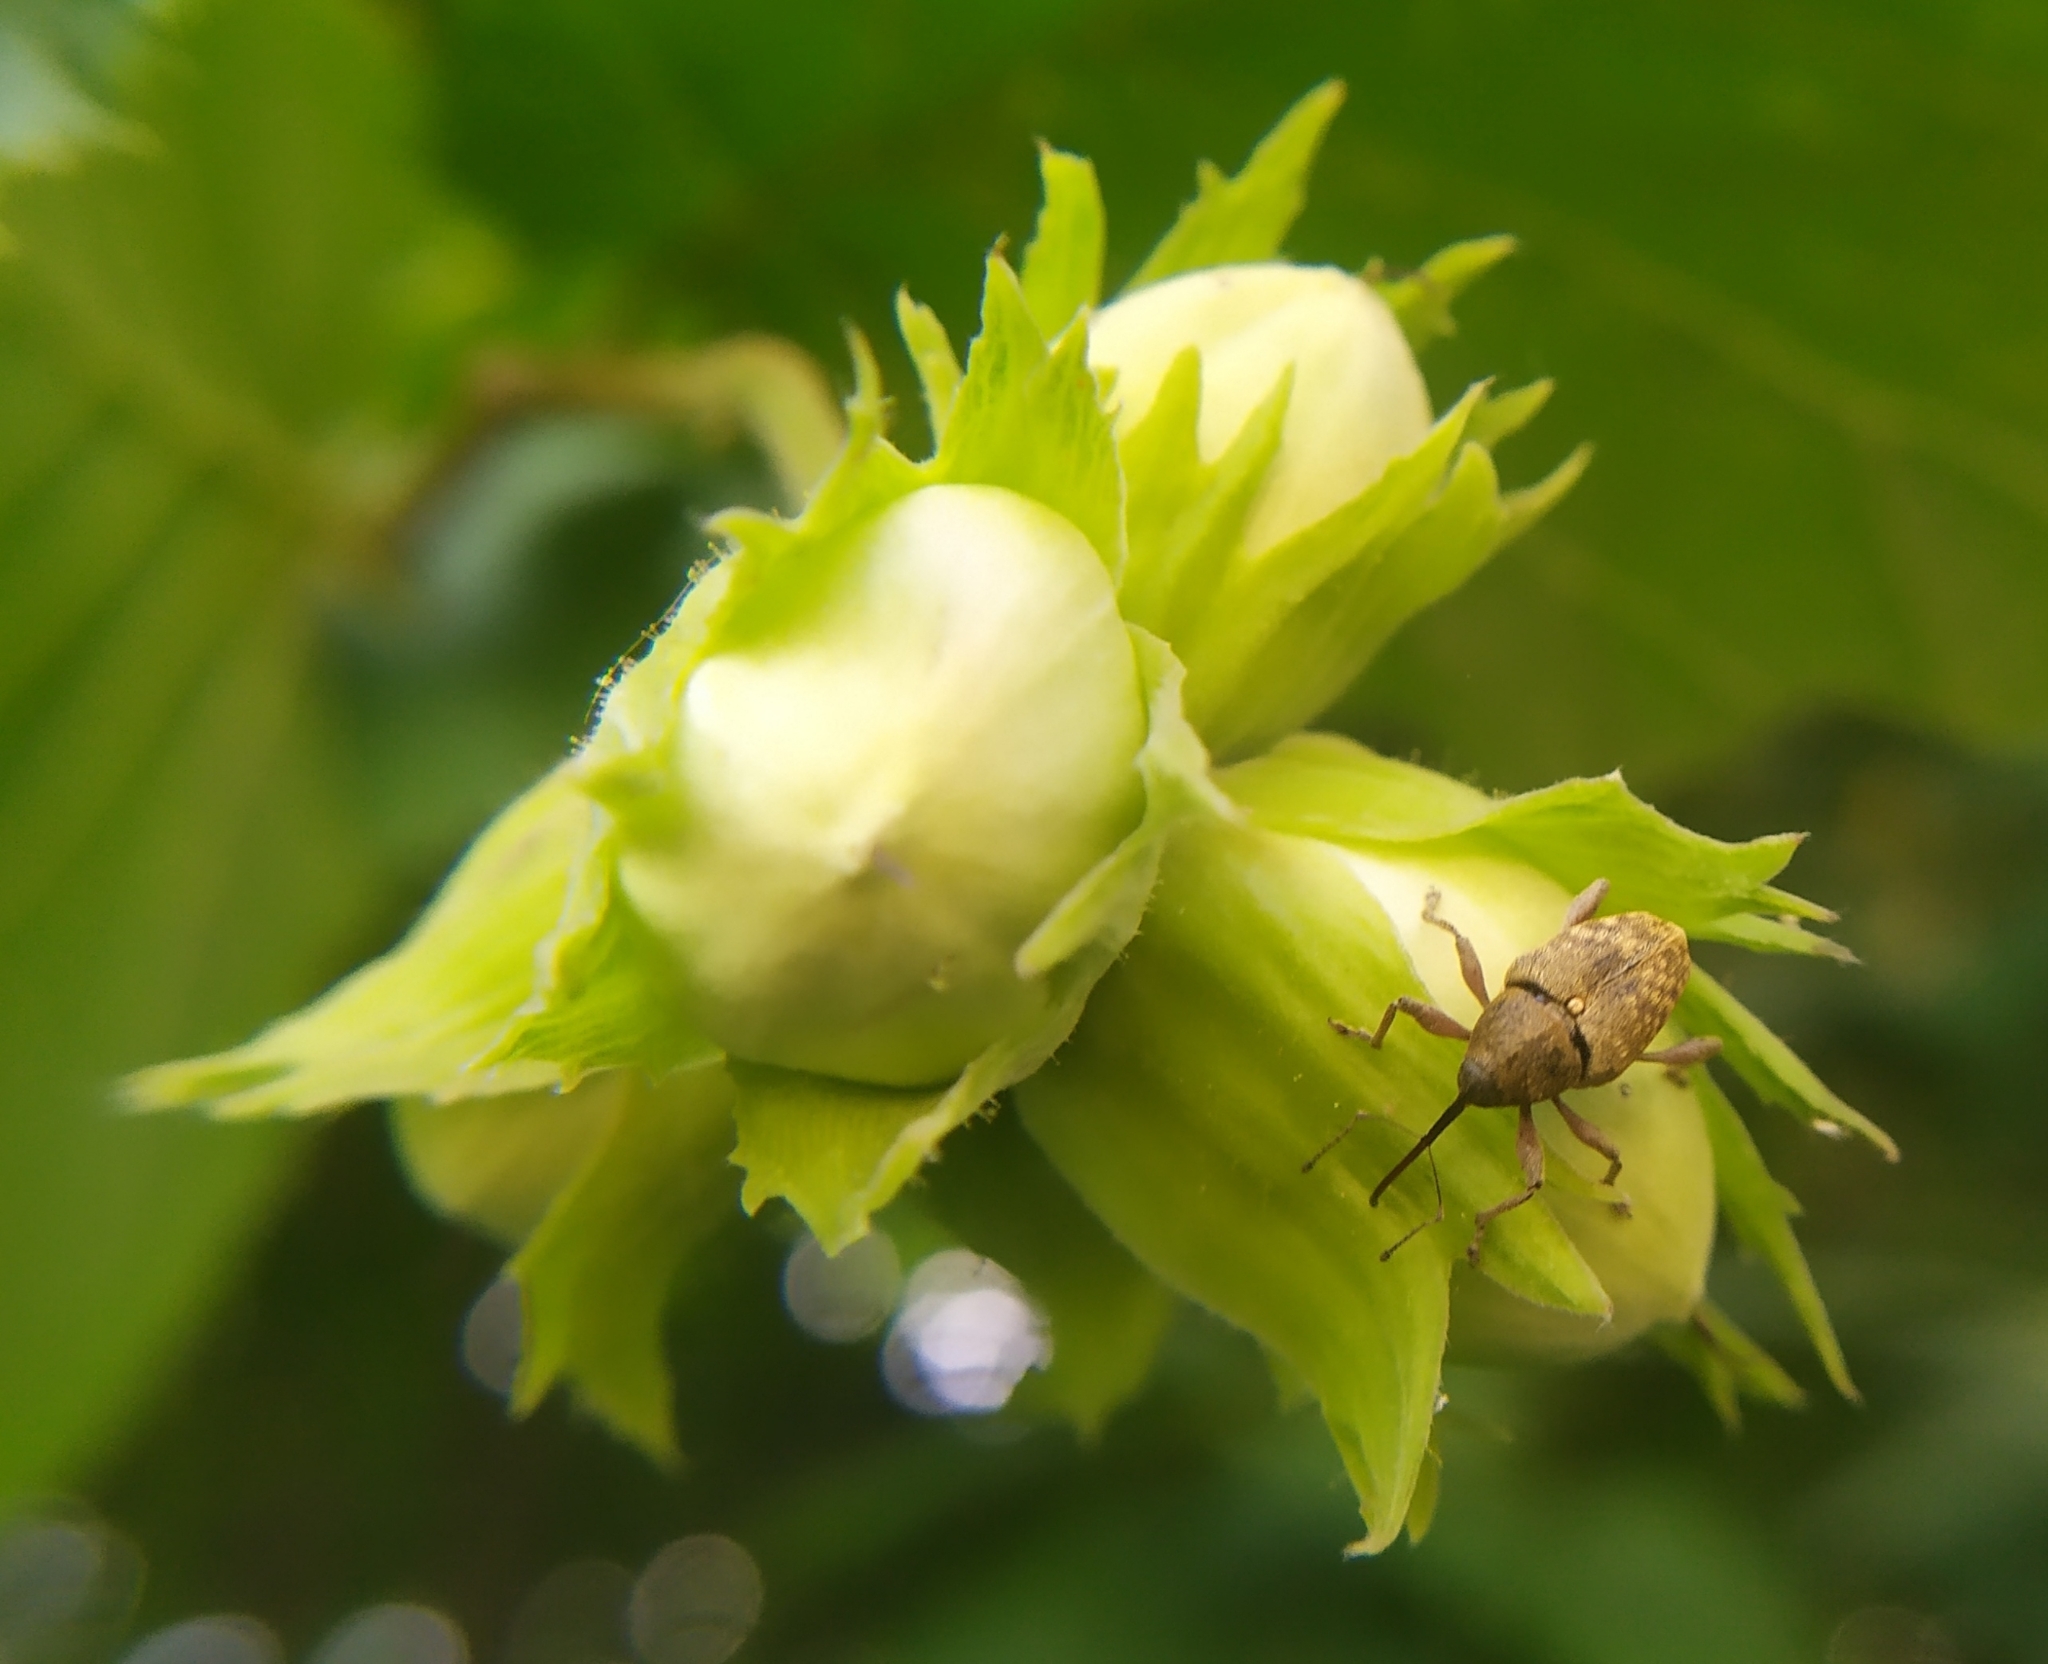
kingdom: Animalia
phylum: Arthropoda
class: Insecta
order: Coleoptera
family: Curculionidae
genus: Curculio
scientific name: Curculio nucum
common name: Nut weevil
